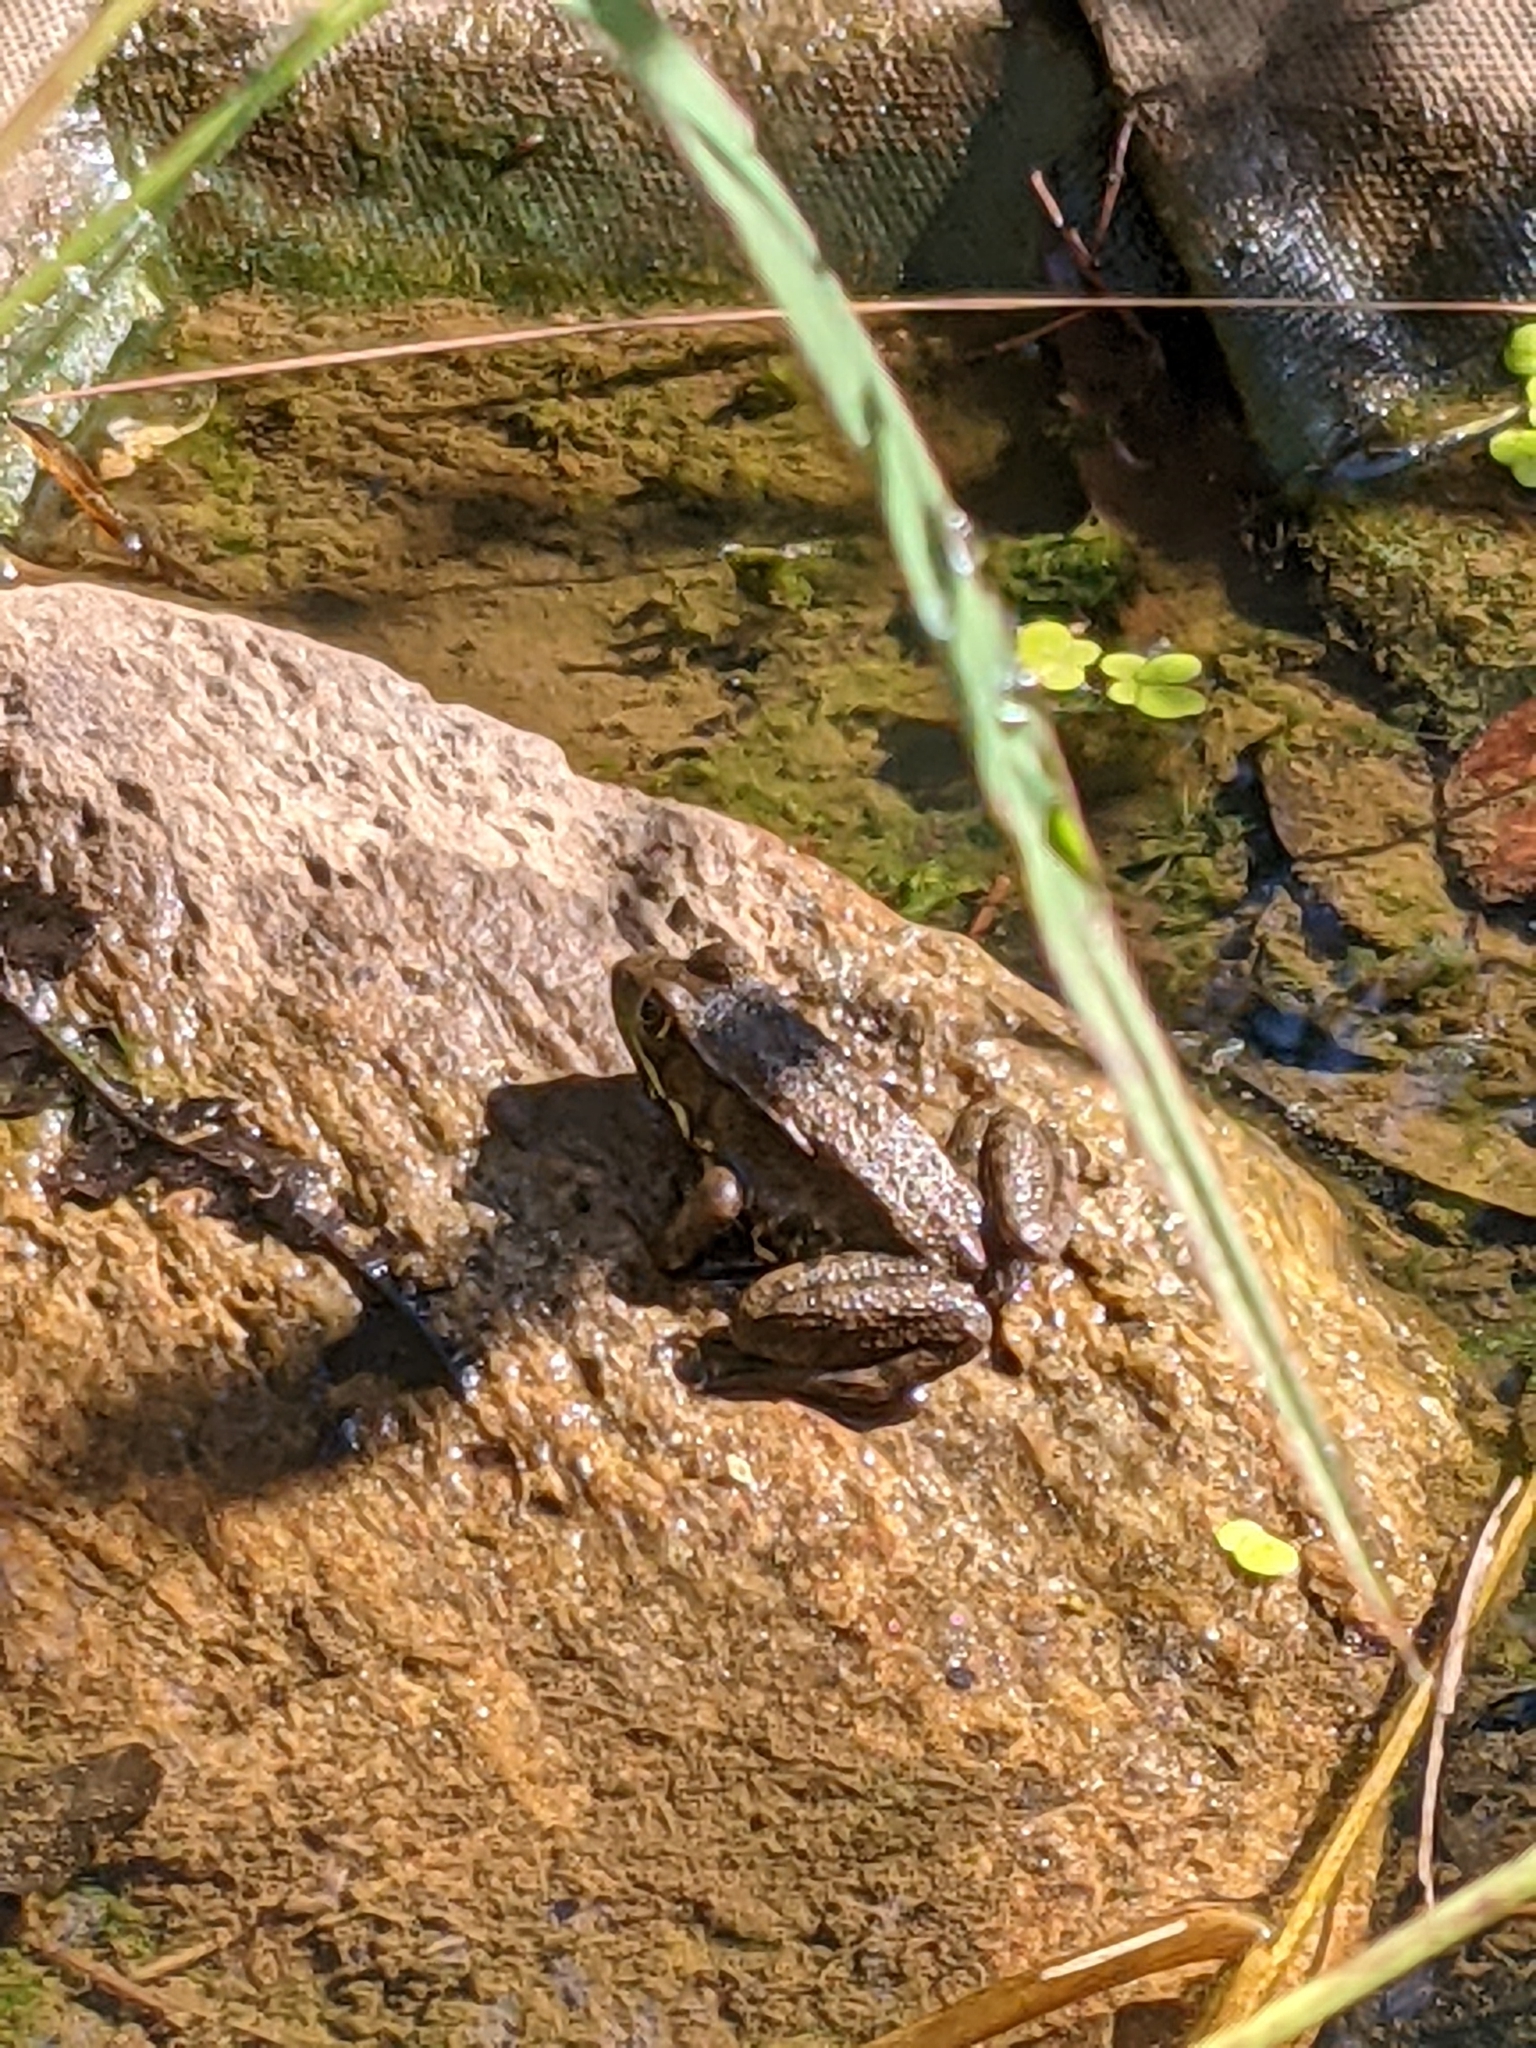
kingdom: Animalia
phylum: Chordata
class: Amphibia
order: Anura
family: Ranidae
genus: Lithobates
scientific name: Lithobates clamitans
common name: Green frog
